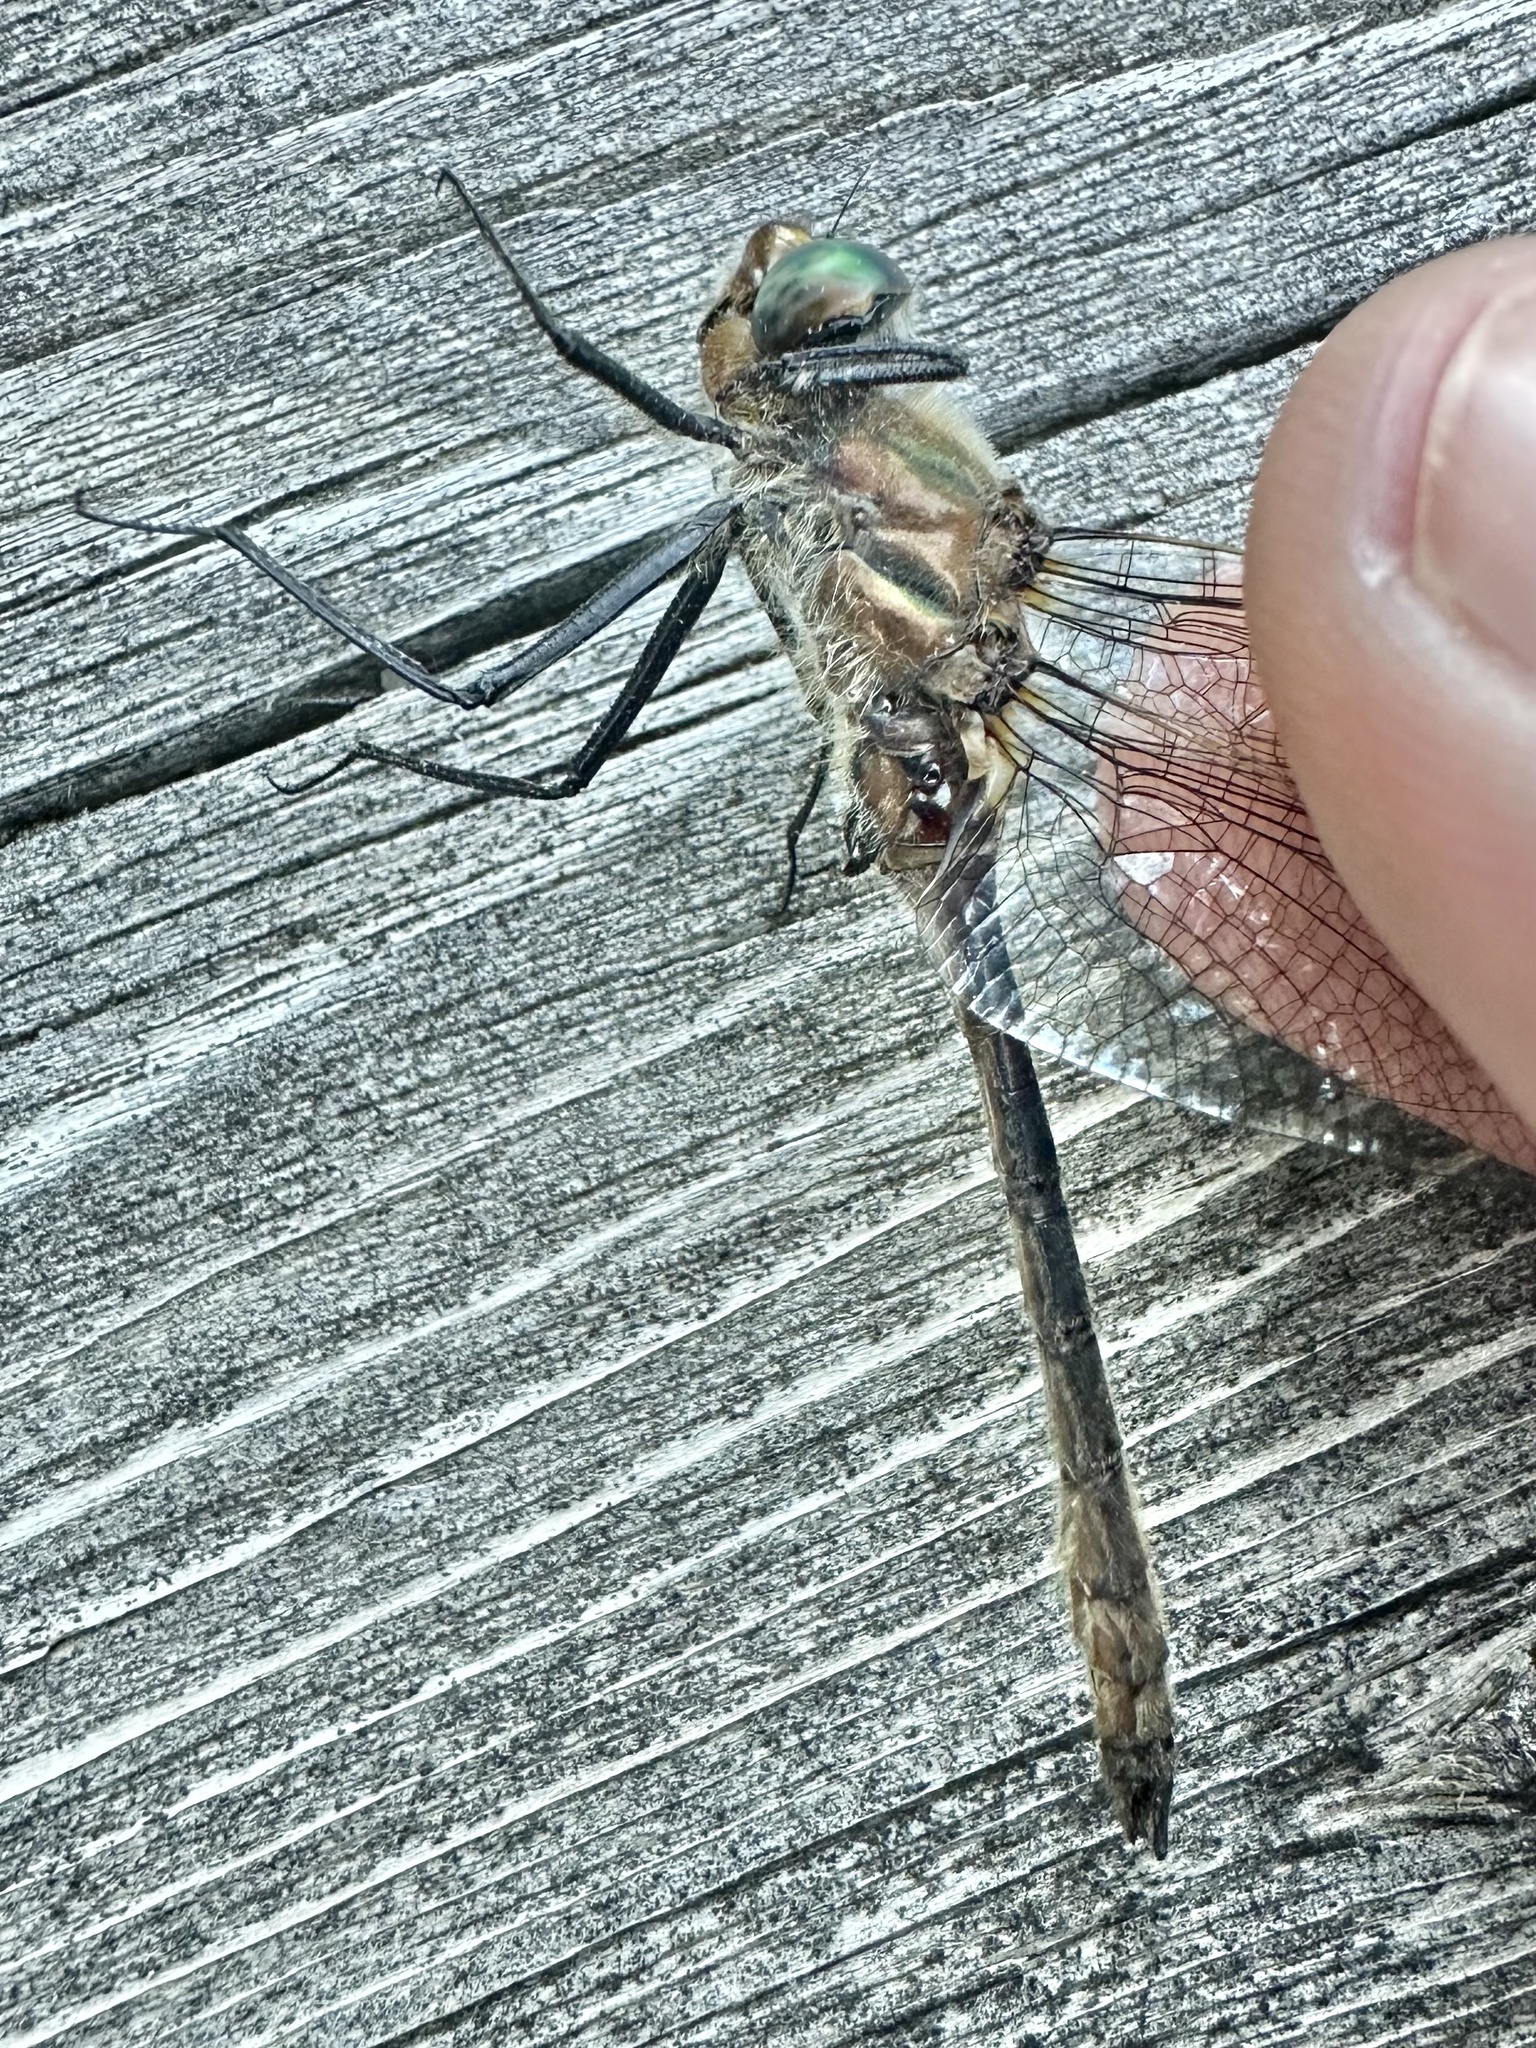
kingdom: Animalia
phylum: Arthropoda
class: Insecta
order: Odonata
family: Corduliidae
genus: Cordulia
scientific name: Cordulia shurtleffii
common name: American emerald
